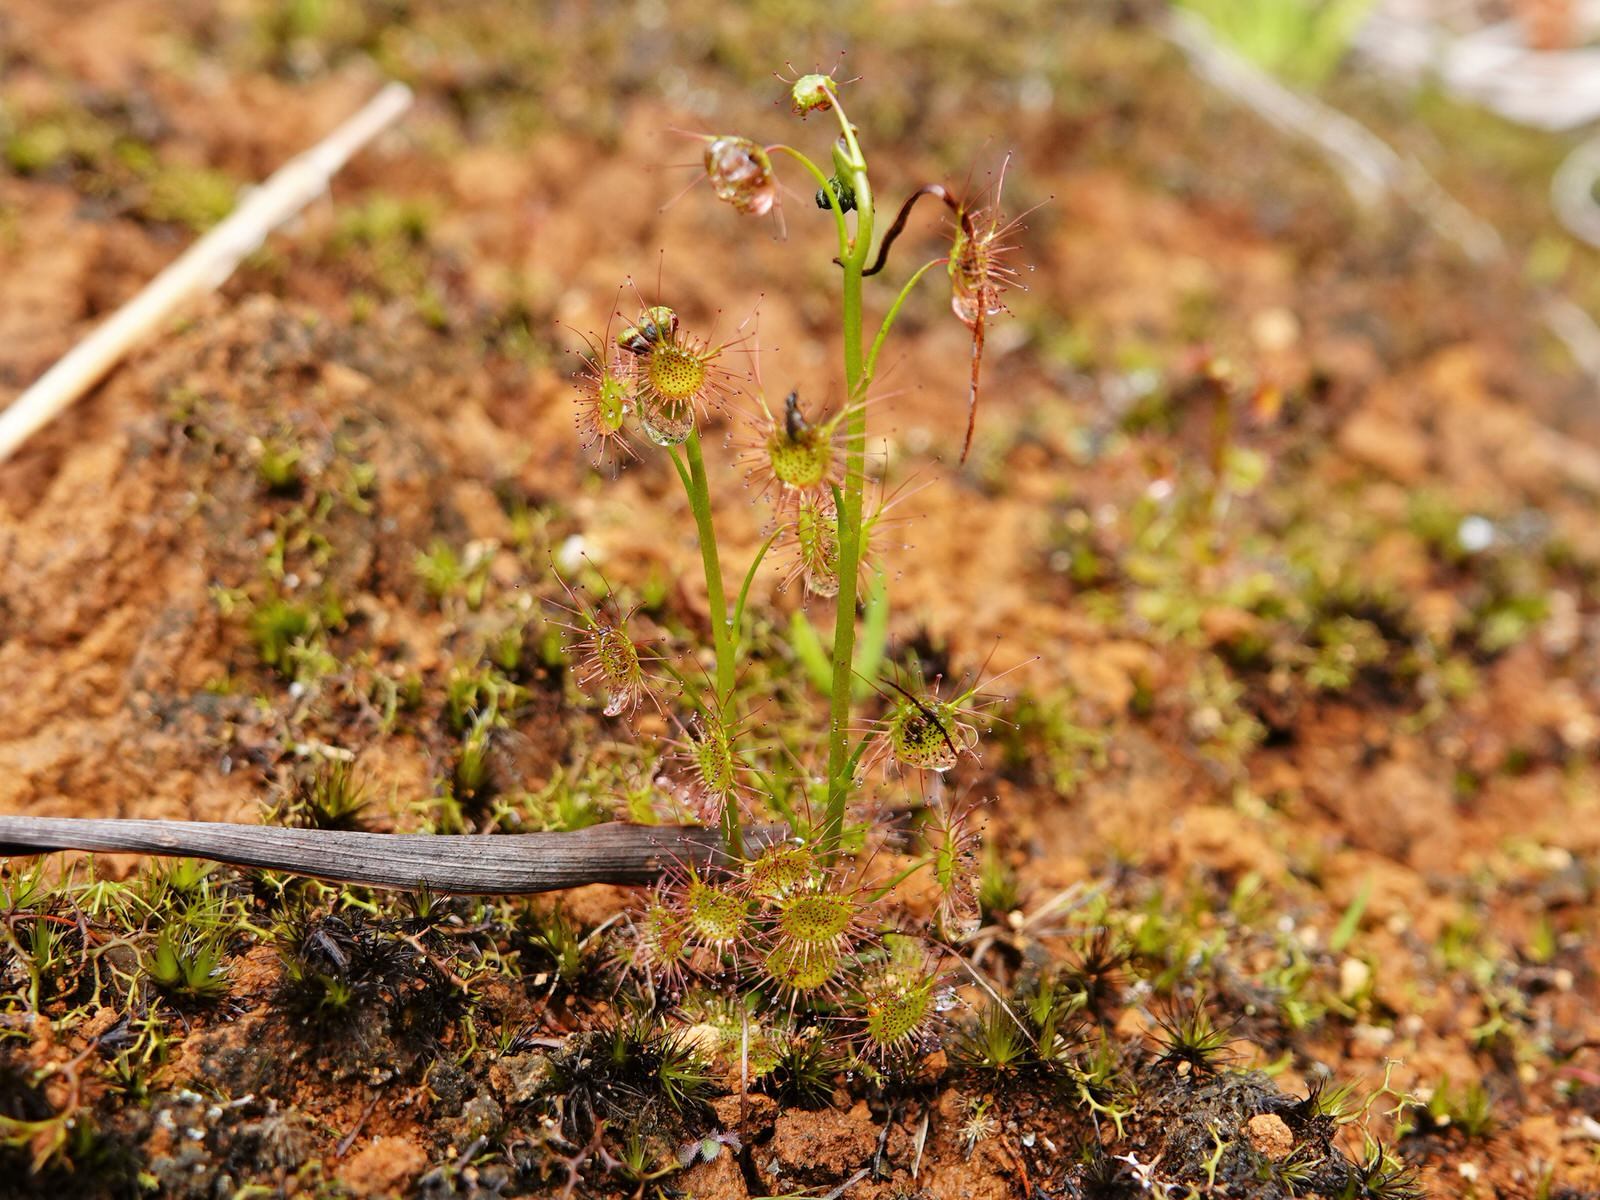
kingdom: Plantae
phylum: Tracheophyta
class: Magnoliopsida
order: Caryophyllales
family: Droseraceae
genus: Drosera
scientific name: Drosera peltata
